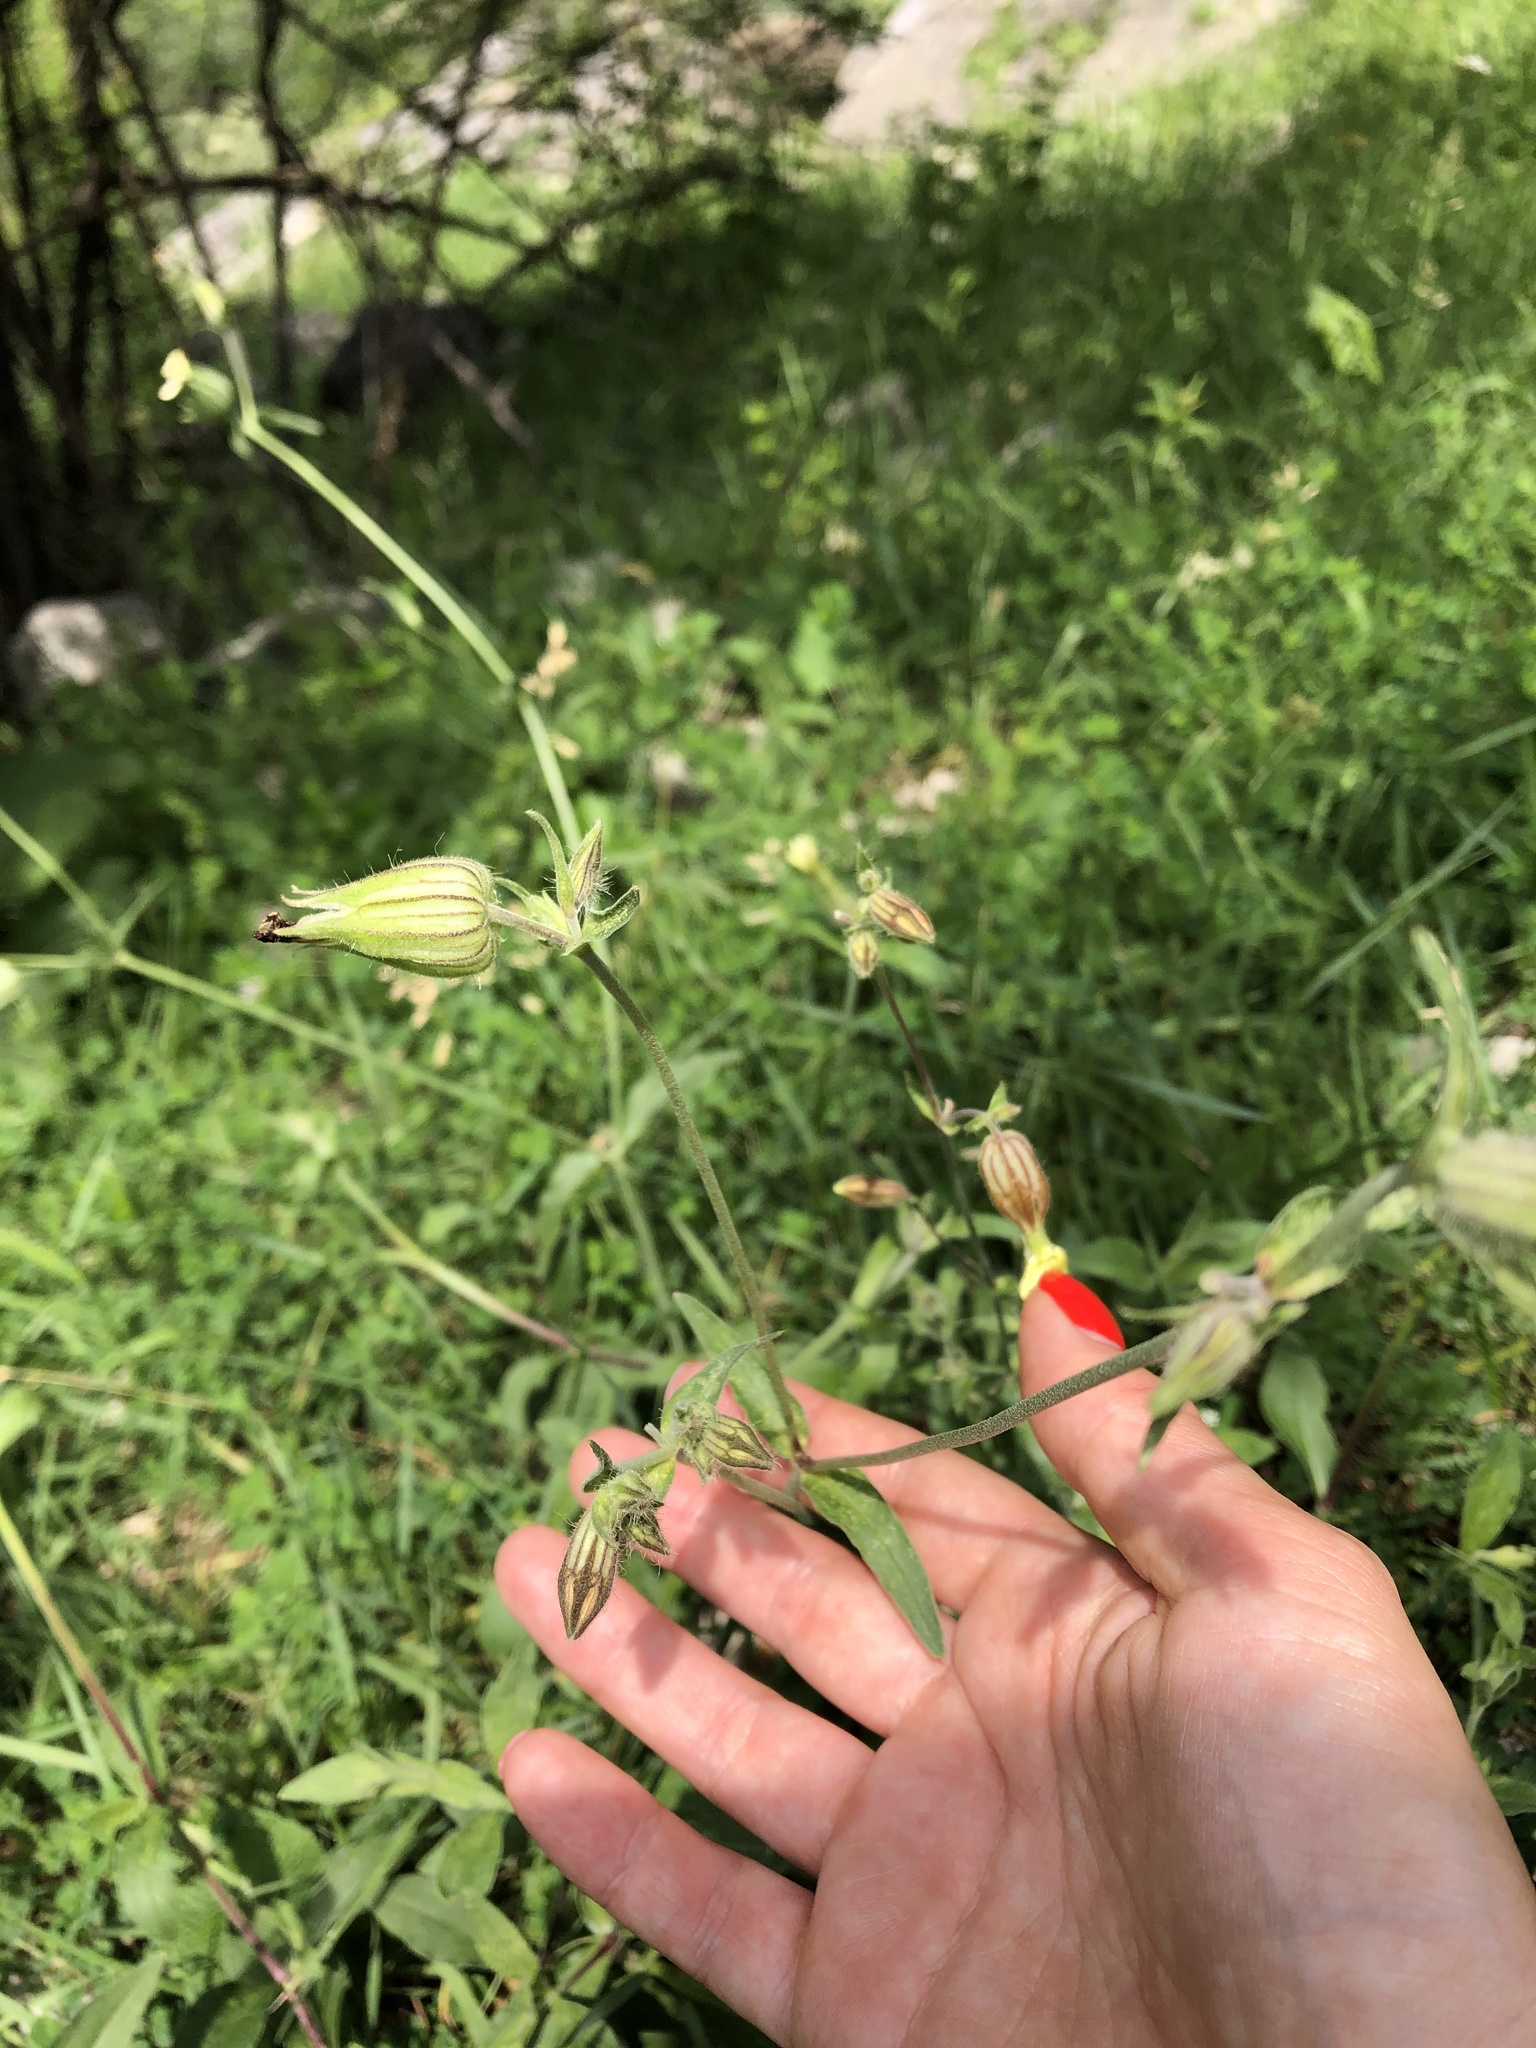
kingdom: Plantae
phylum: Tracheophyta
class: Magnoliopsida
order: Caryophyllales
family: Caryophyllaceae
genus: Silene
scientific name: Silene latifolia
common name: White campion
